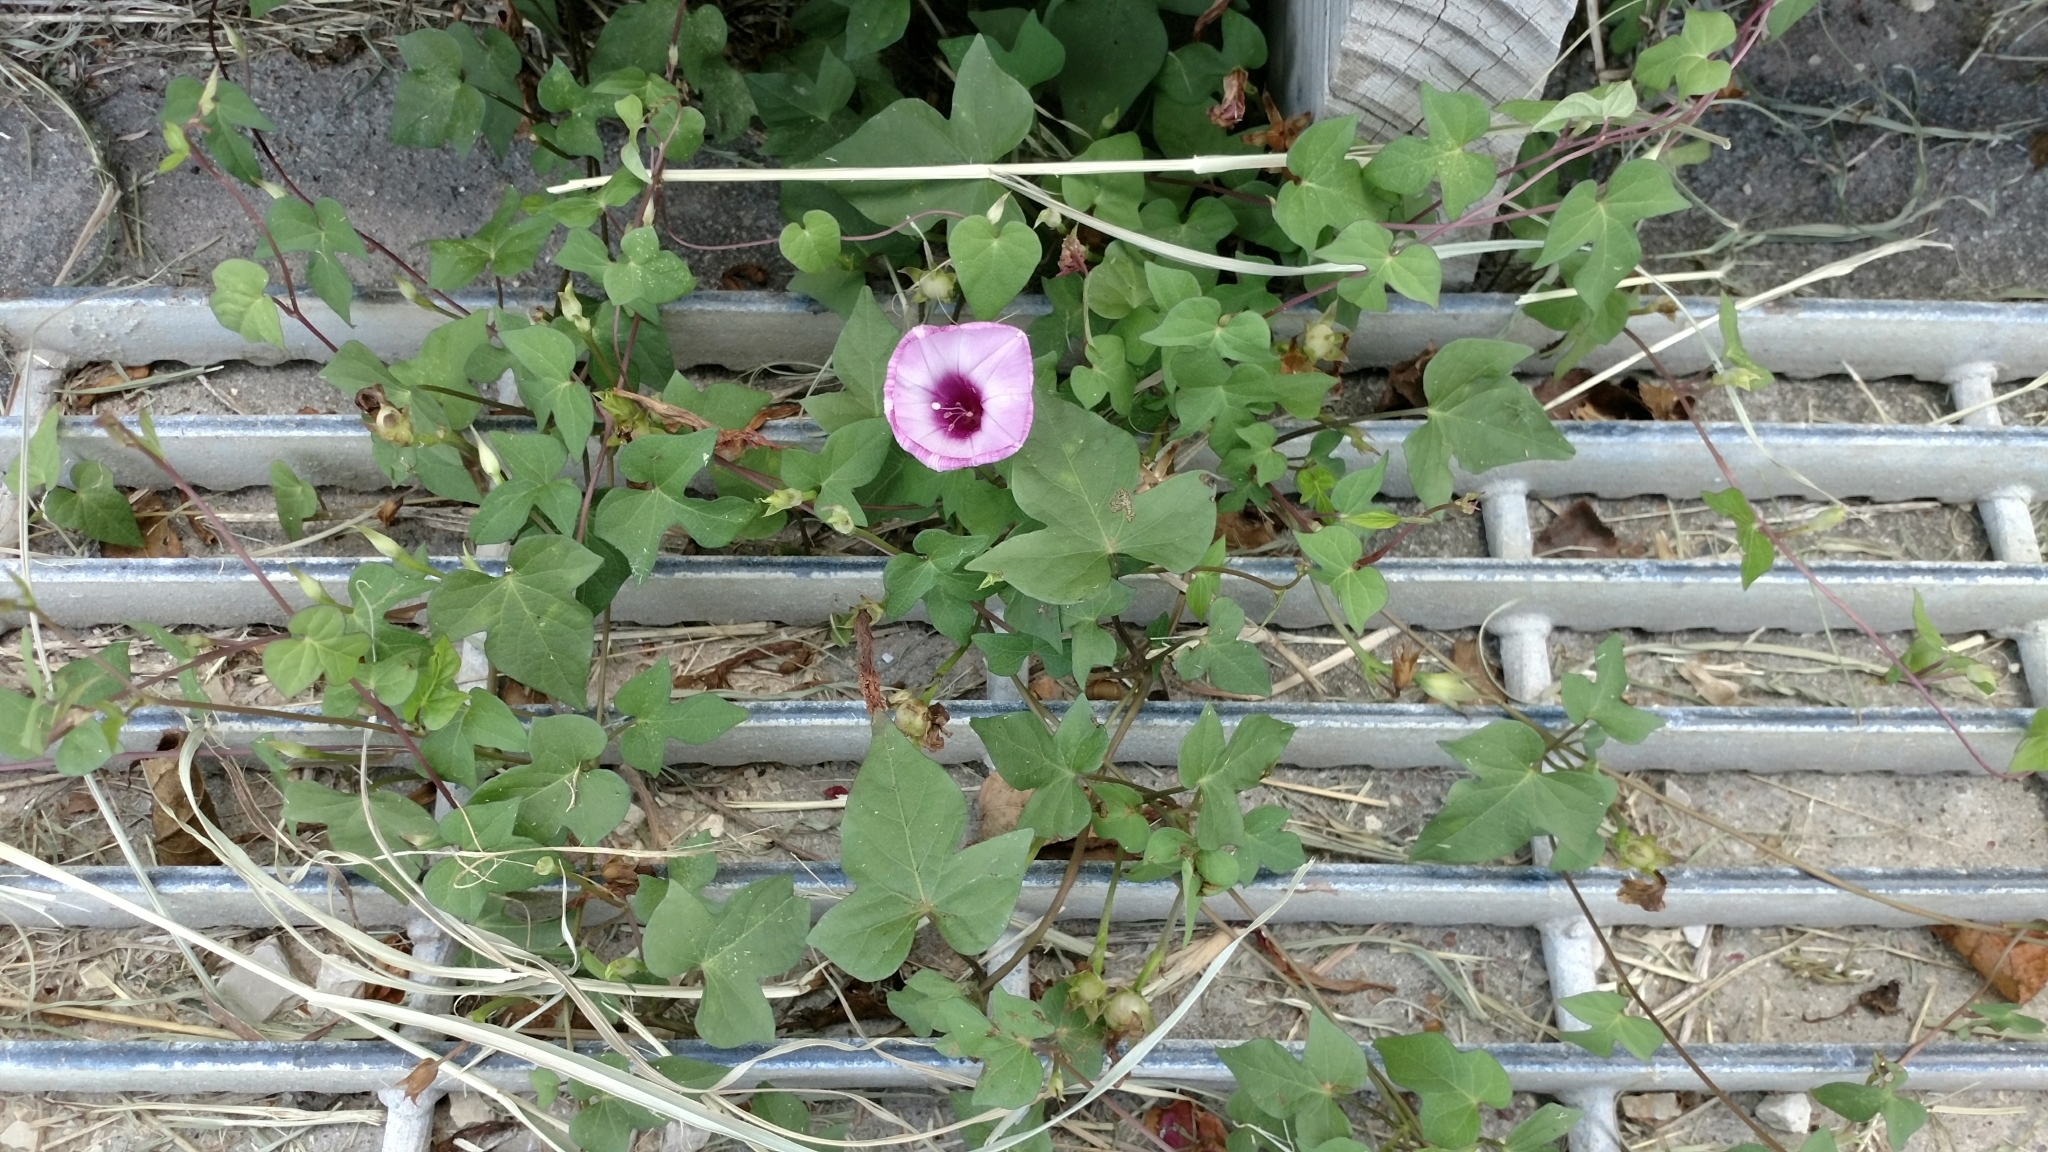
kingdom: Plantae
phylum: Tracheophyta
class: Magnoliopsida
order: Solanales
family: Convolvulaceae
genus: Ipomoea
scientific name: Ipomoea cordatotriloba
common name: Cotton morning glory
